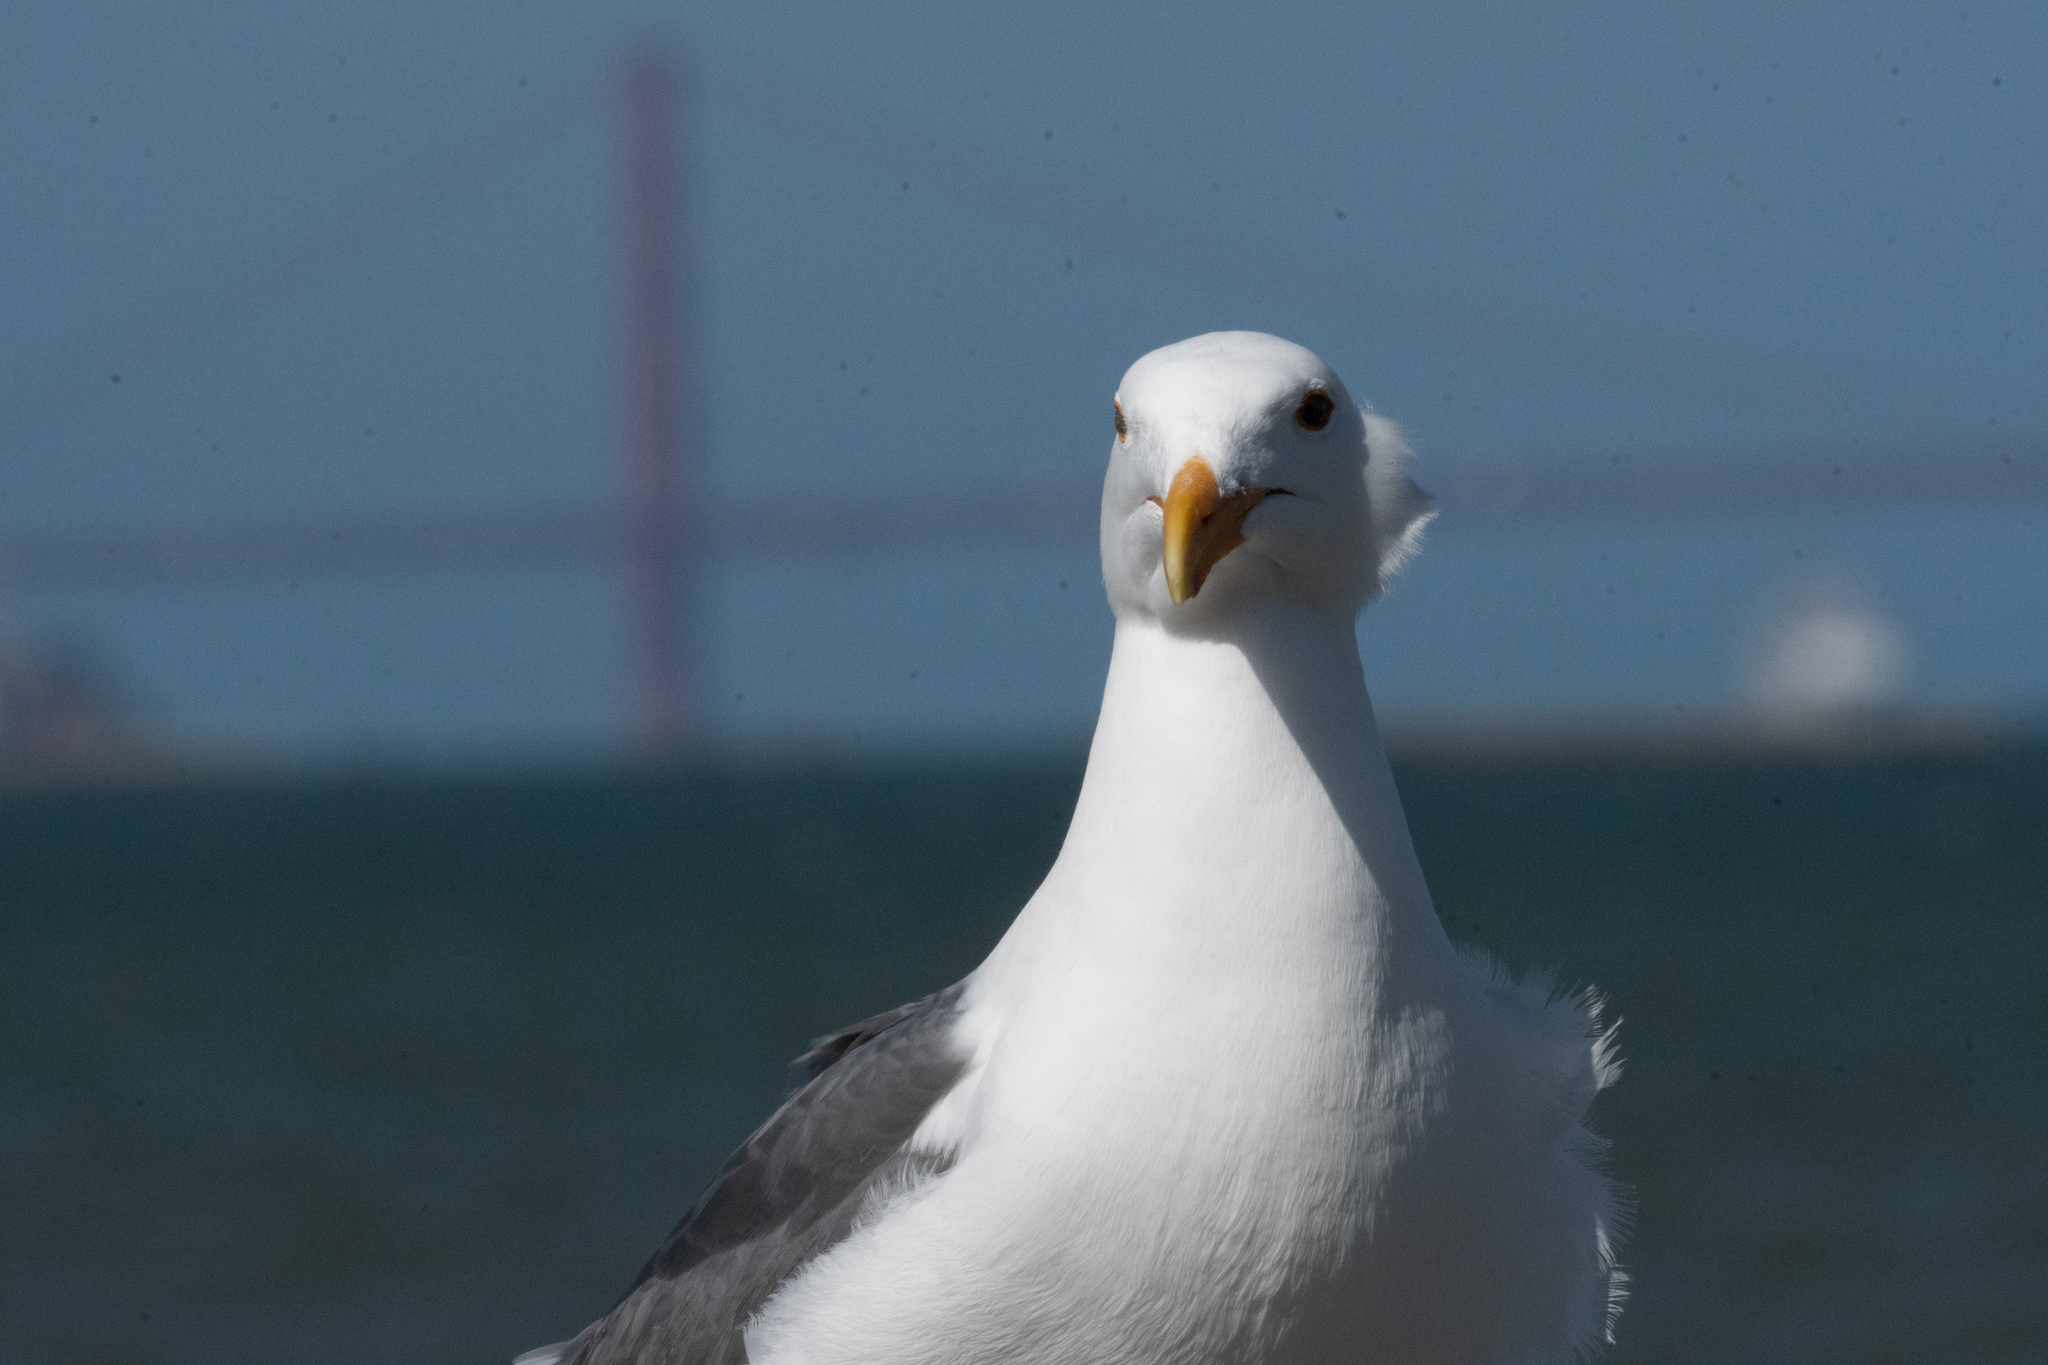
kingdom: Animalia
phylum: Chordata
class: Aves
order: Charadriiformes
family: Laridae
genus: Larus
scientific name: Larus occidentalis
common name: Western gull
